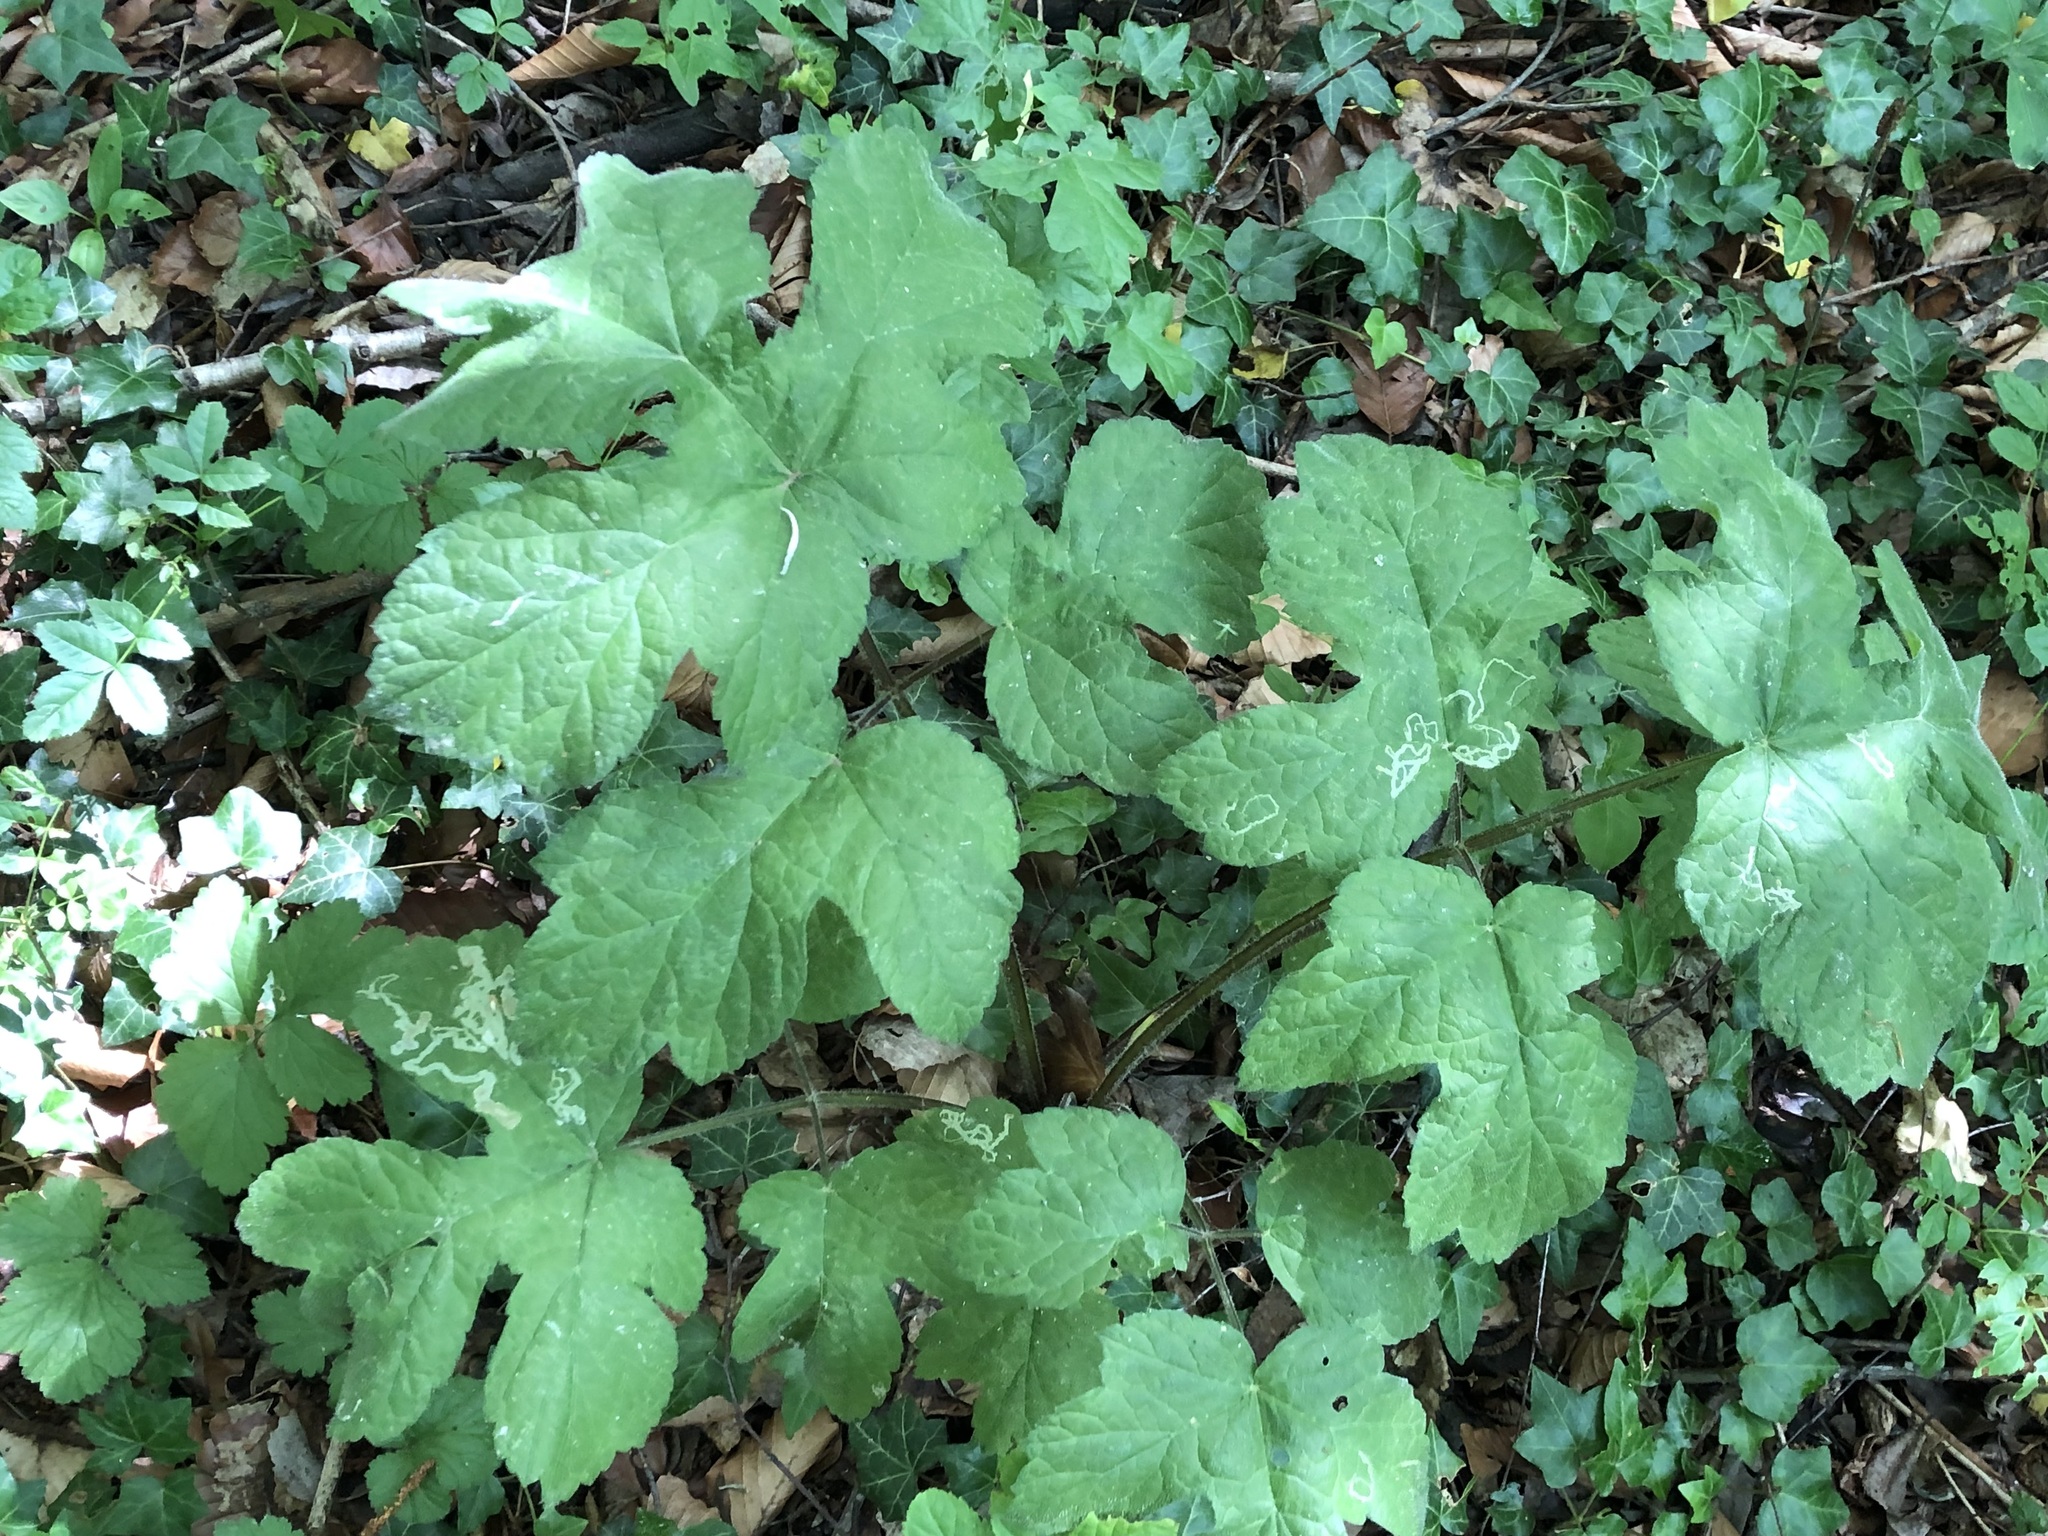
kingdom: Plantae
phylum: Tracheophyta
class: Magnoliopsida
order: Apiales
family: Apiaceae
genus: Heracleum
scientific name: Heracleum sphondylium
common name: Hogweed
